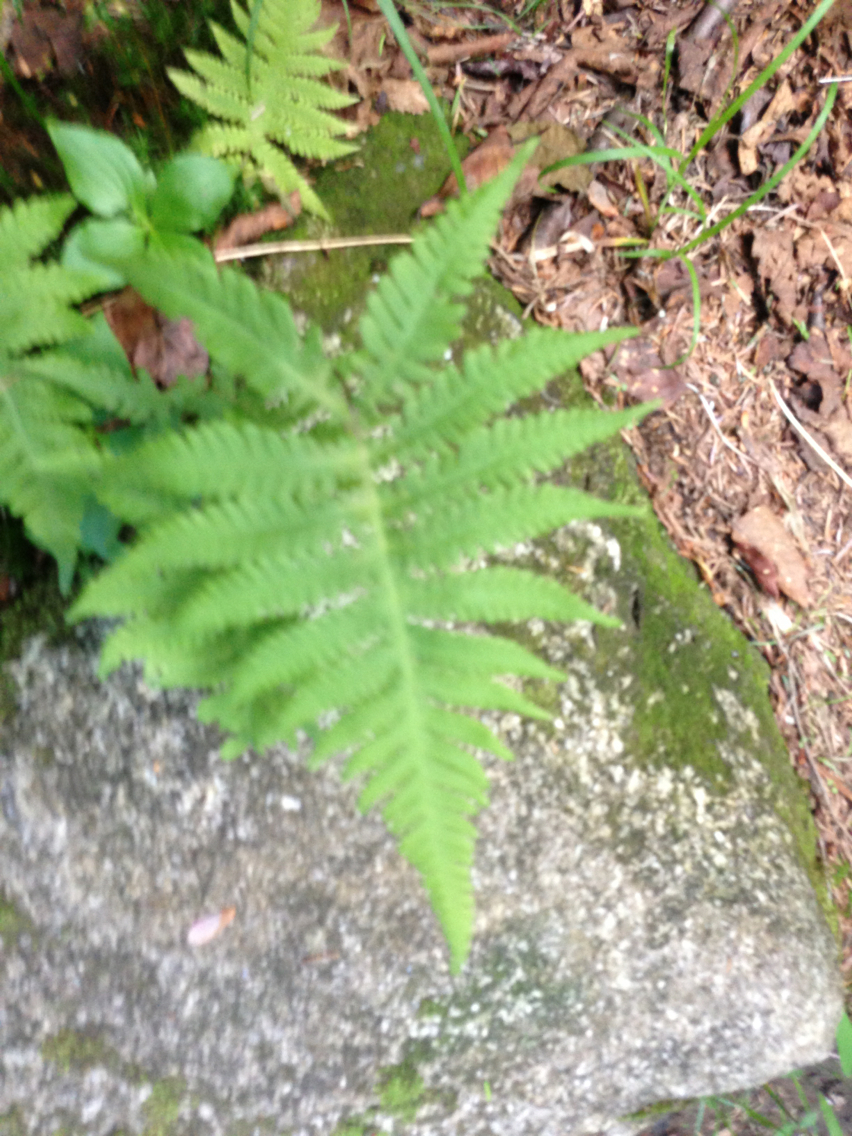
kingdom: Plantae
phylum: Tracheophyta
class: Polypodiopsida
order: Polypodiales
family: Thelypteridaceae
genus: Phegopteris
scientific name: Phegopteris connectilis
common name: Beech fern
